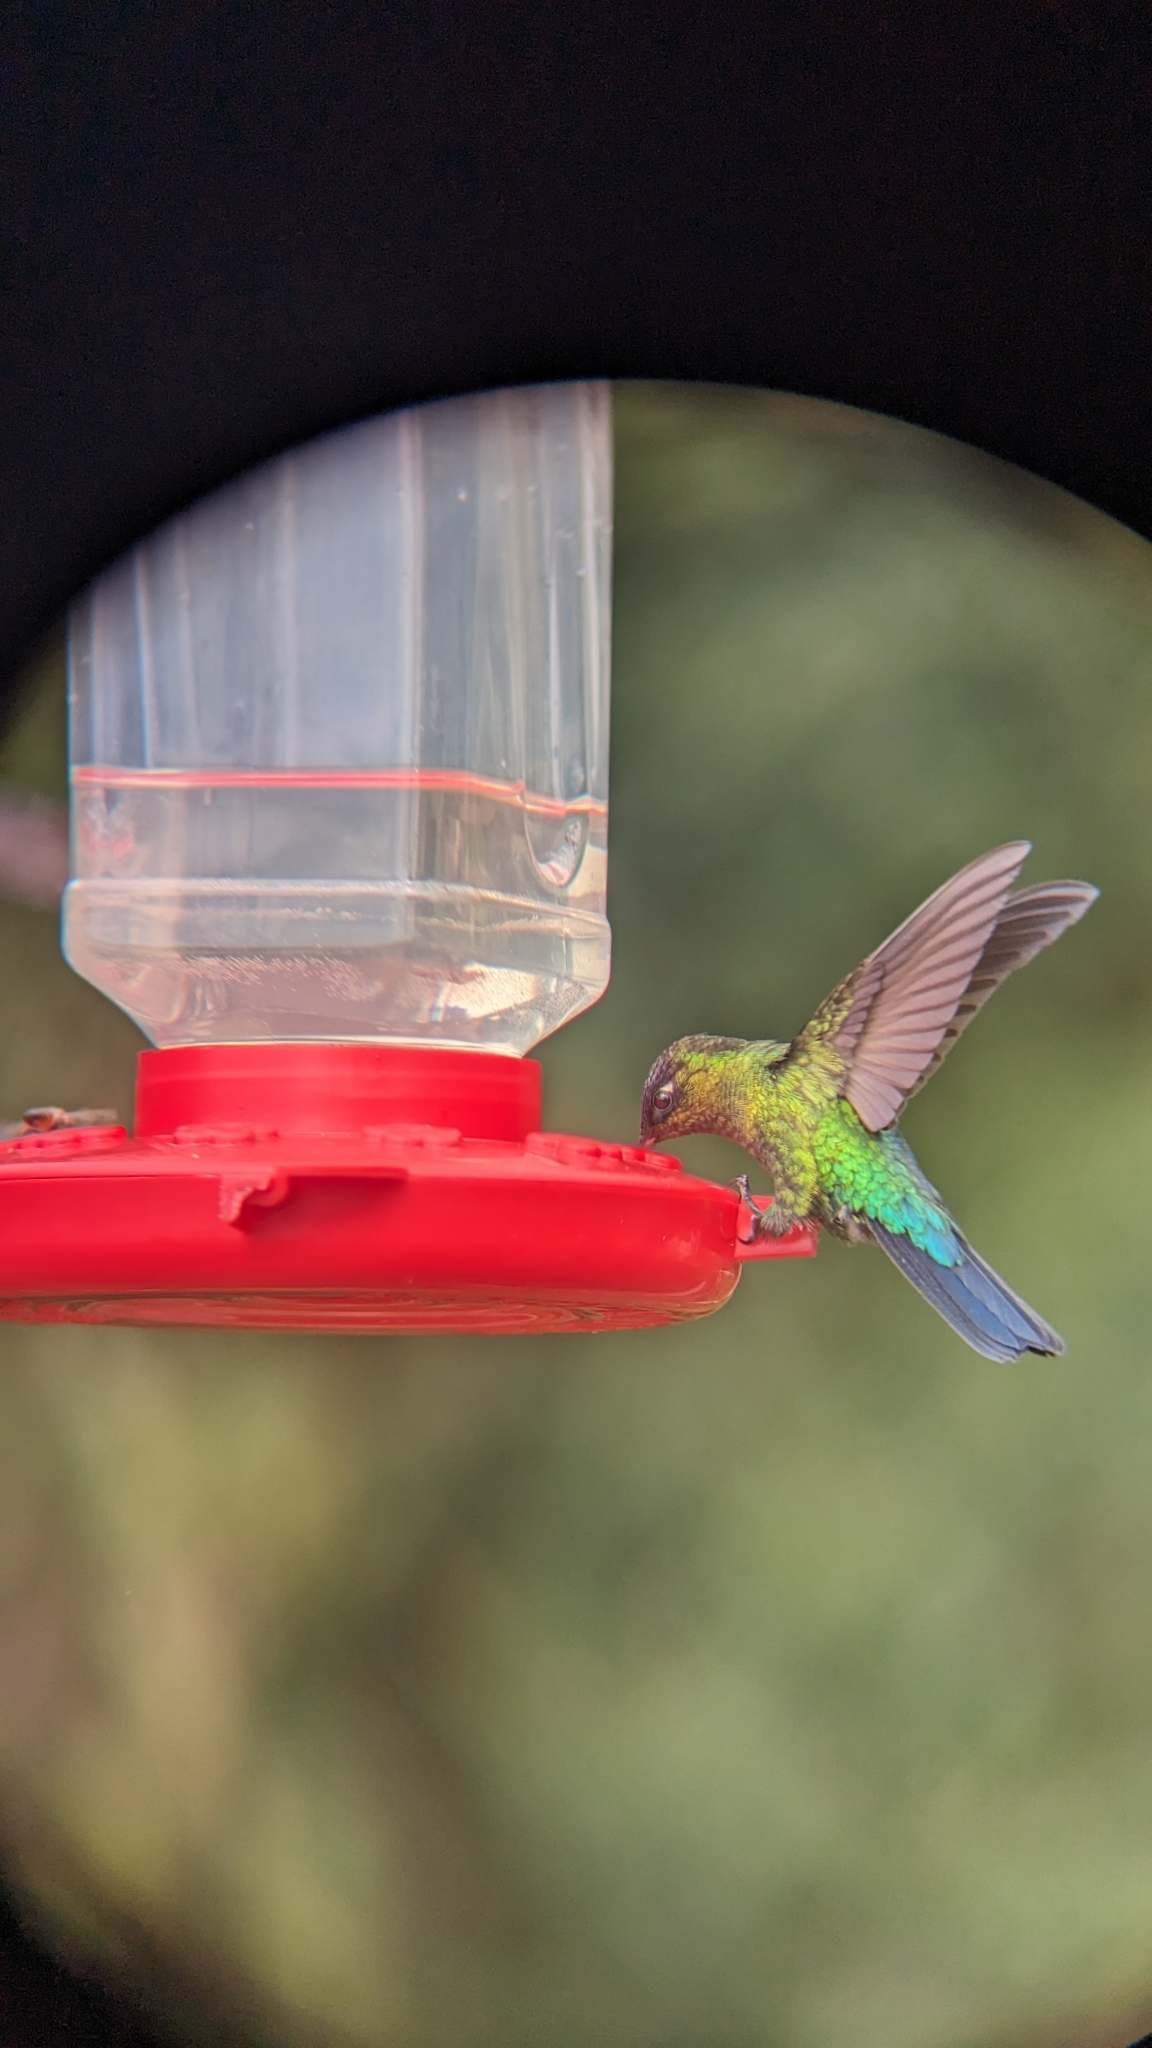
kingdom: Animalia
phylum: Chordata
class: Aves
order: Apodiformes
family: Trochilidae
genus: Panterpe
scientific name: Panterpe insignis
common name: Fiery-throated hummingbird
